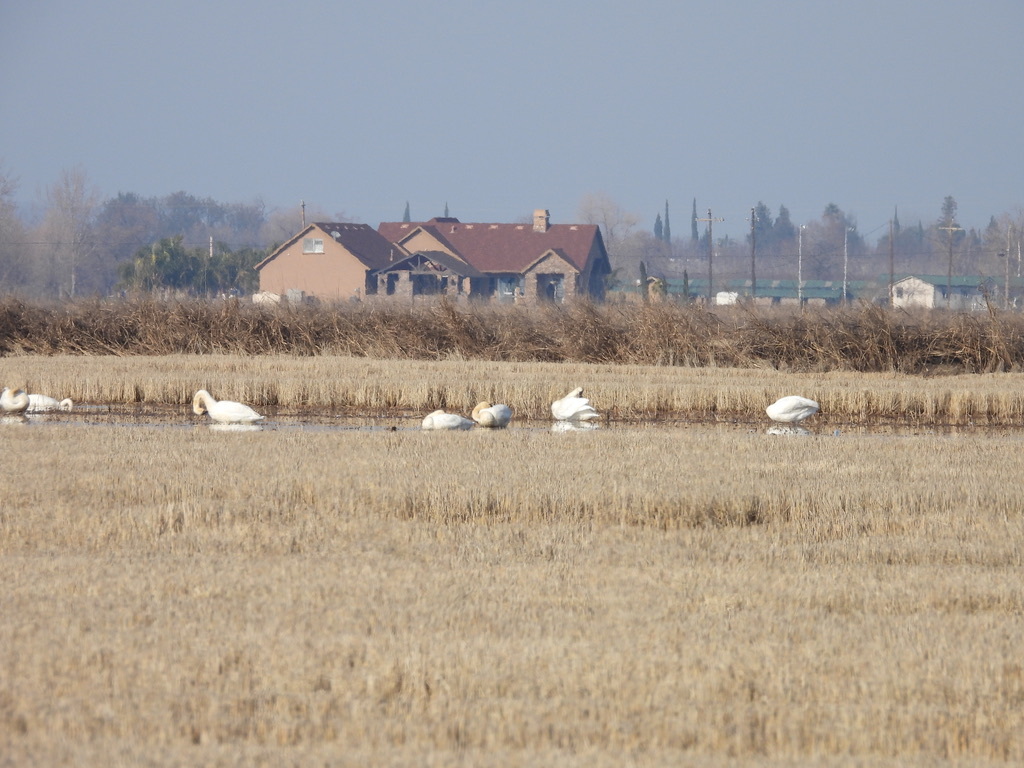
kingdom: Animalia
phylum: Chordata
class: Aves
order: Anseriformes
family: Anatidae
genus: Cygnus
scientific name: Cygnus columbianus
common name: Tundra swan
